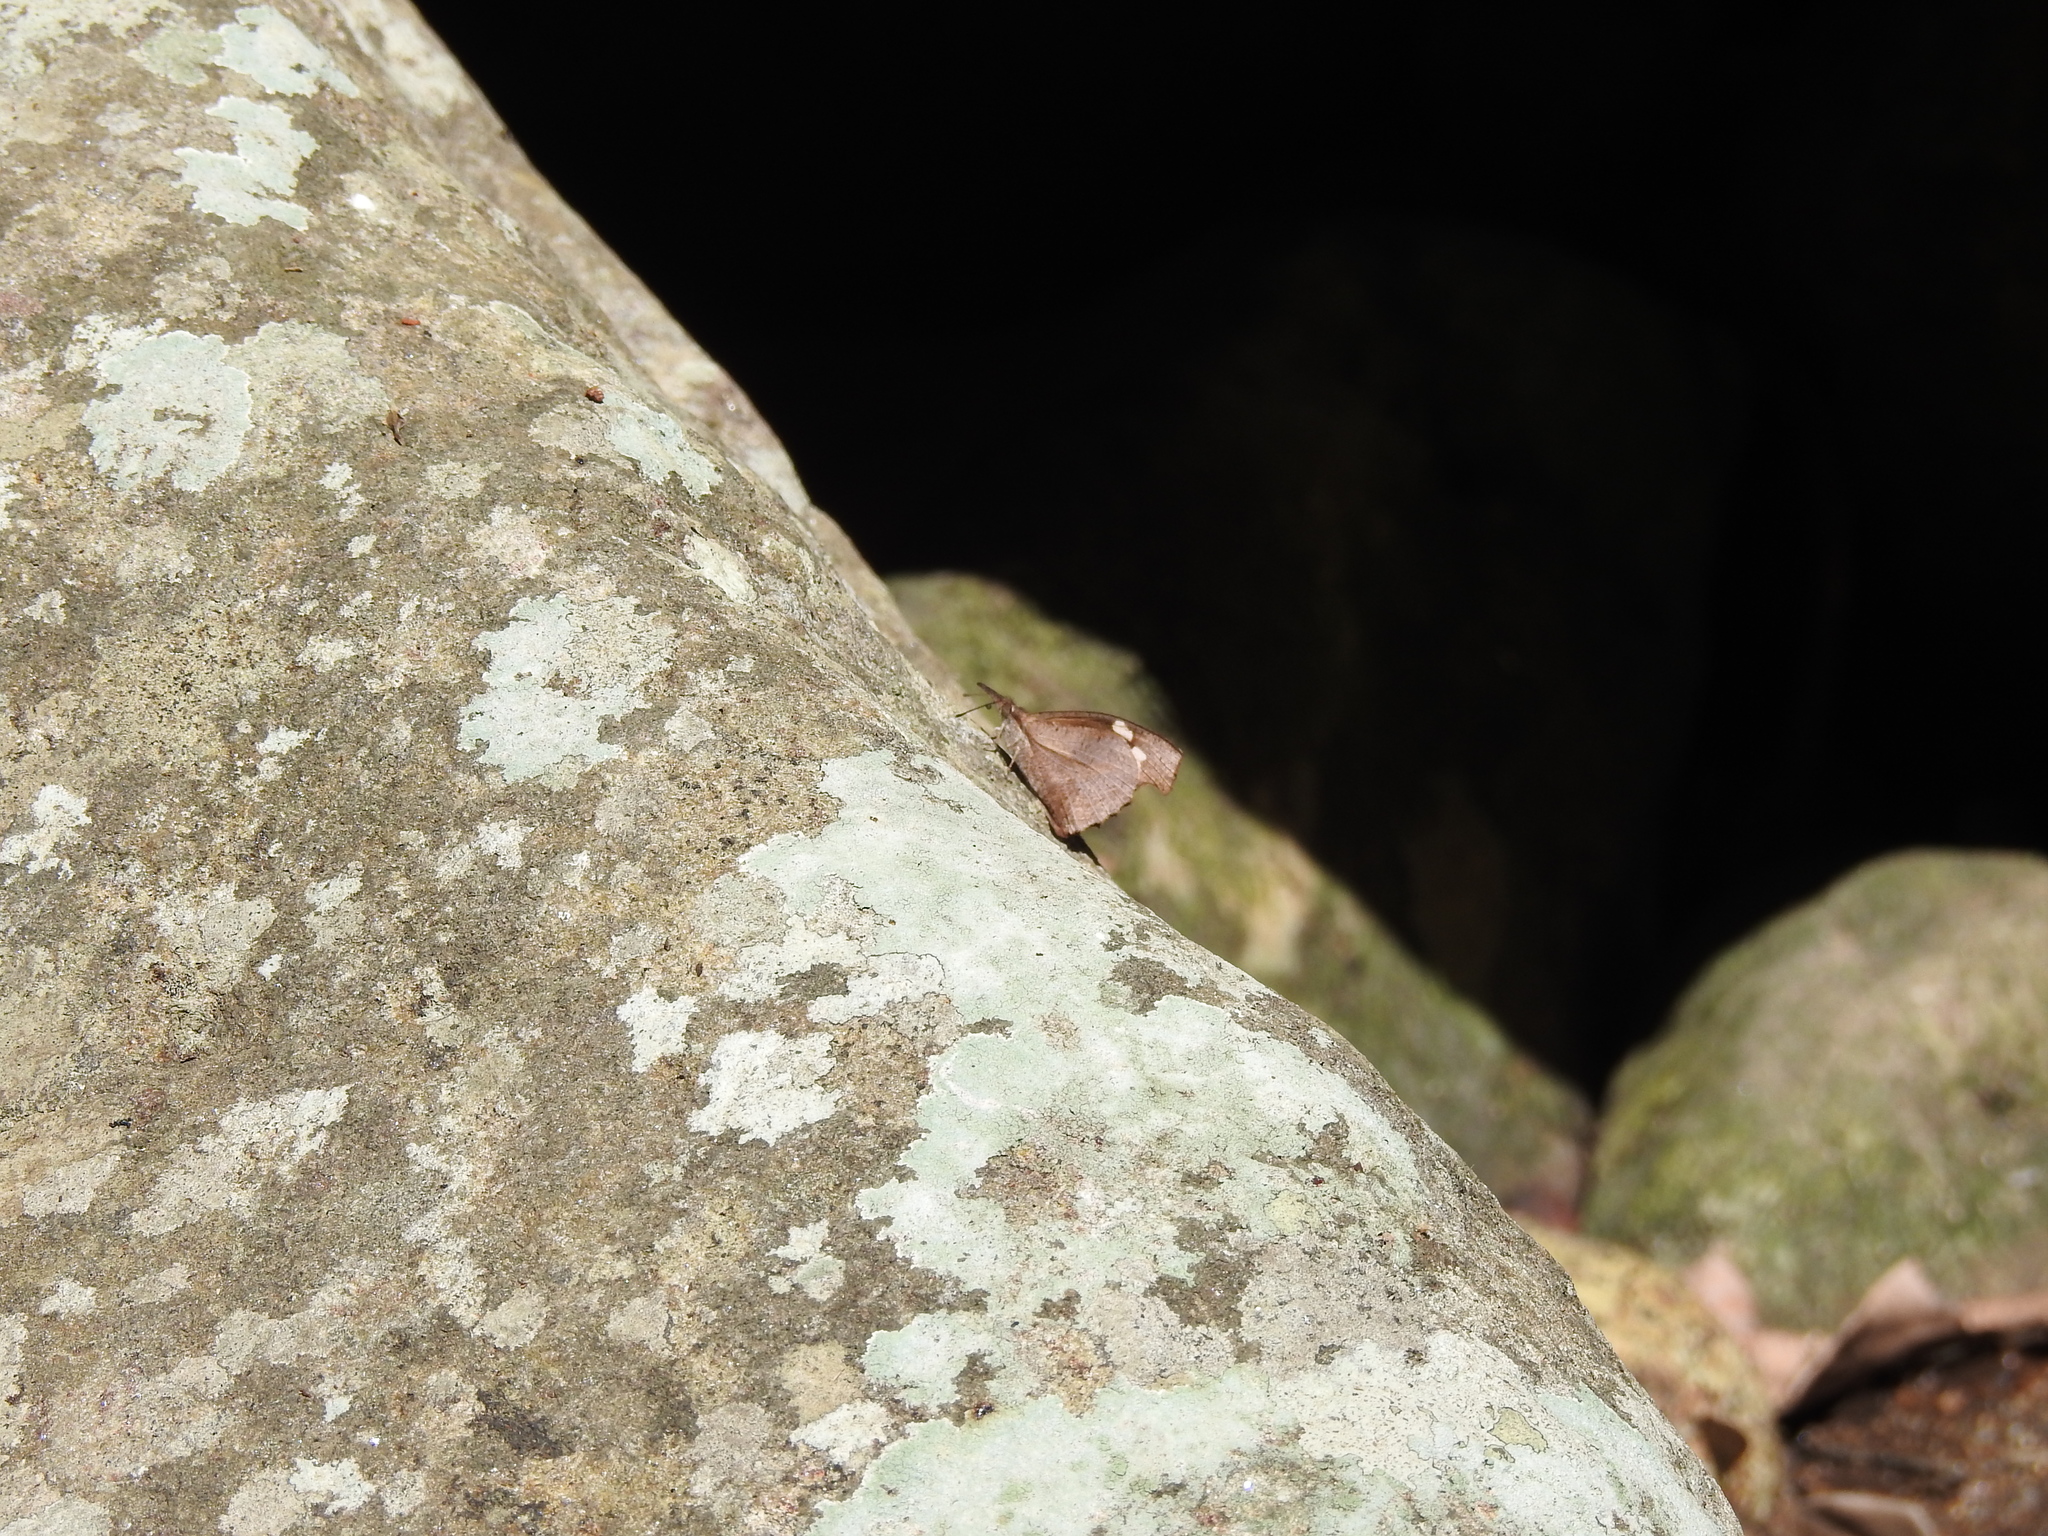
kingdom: Animalia
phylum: Arthropoda
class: Insecta
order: Lepidoptera
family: Nymphalidae
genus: Libythea
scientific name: Libythea myrrha
